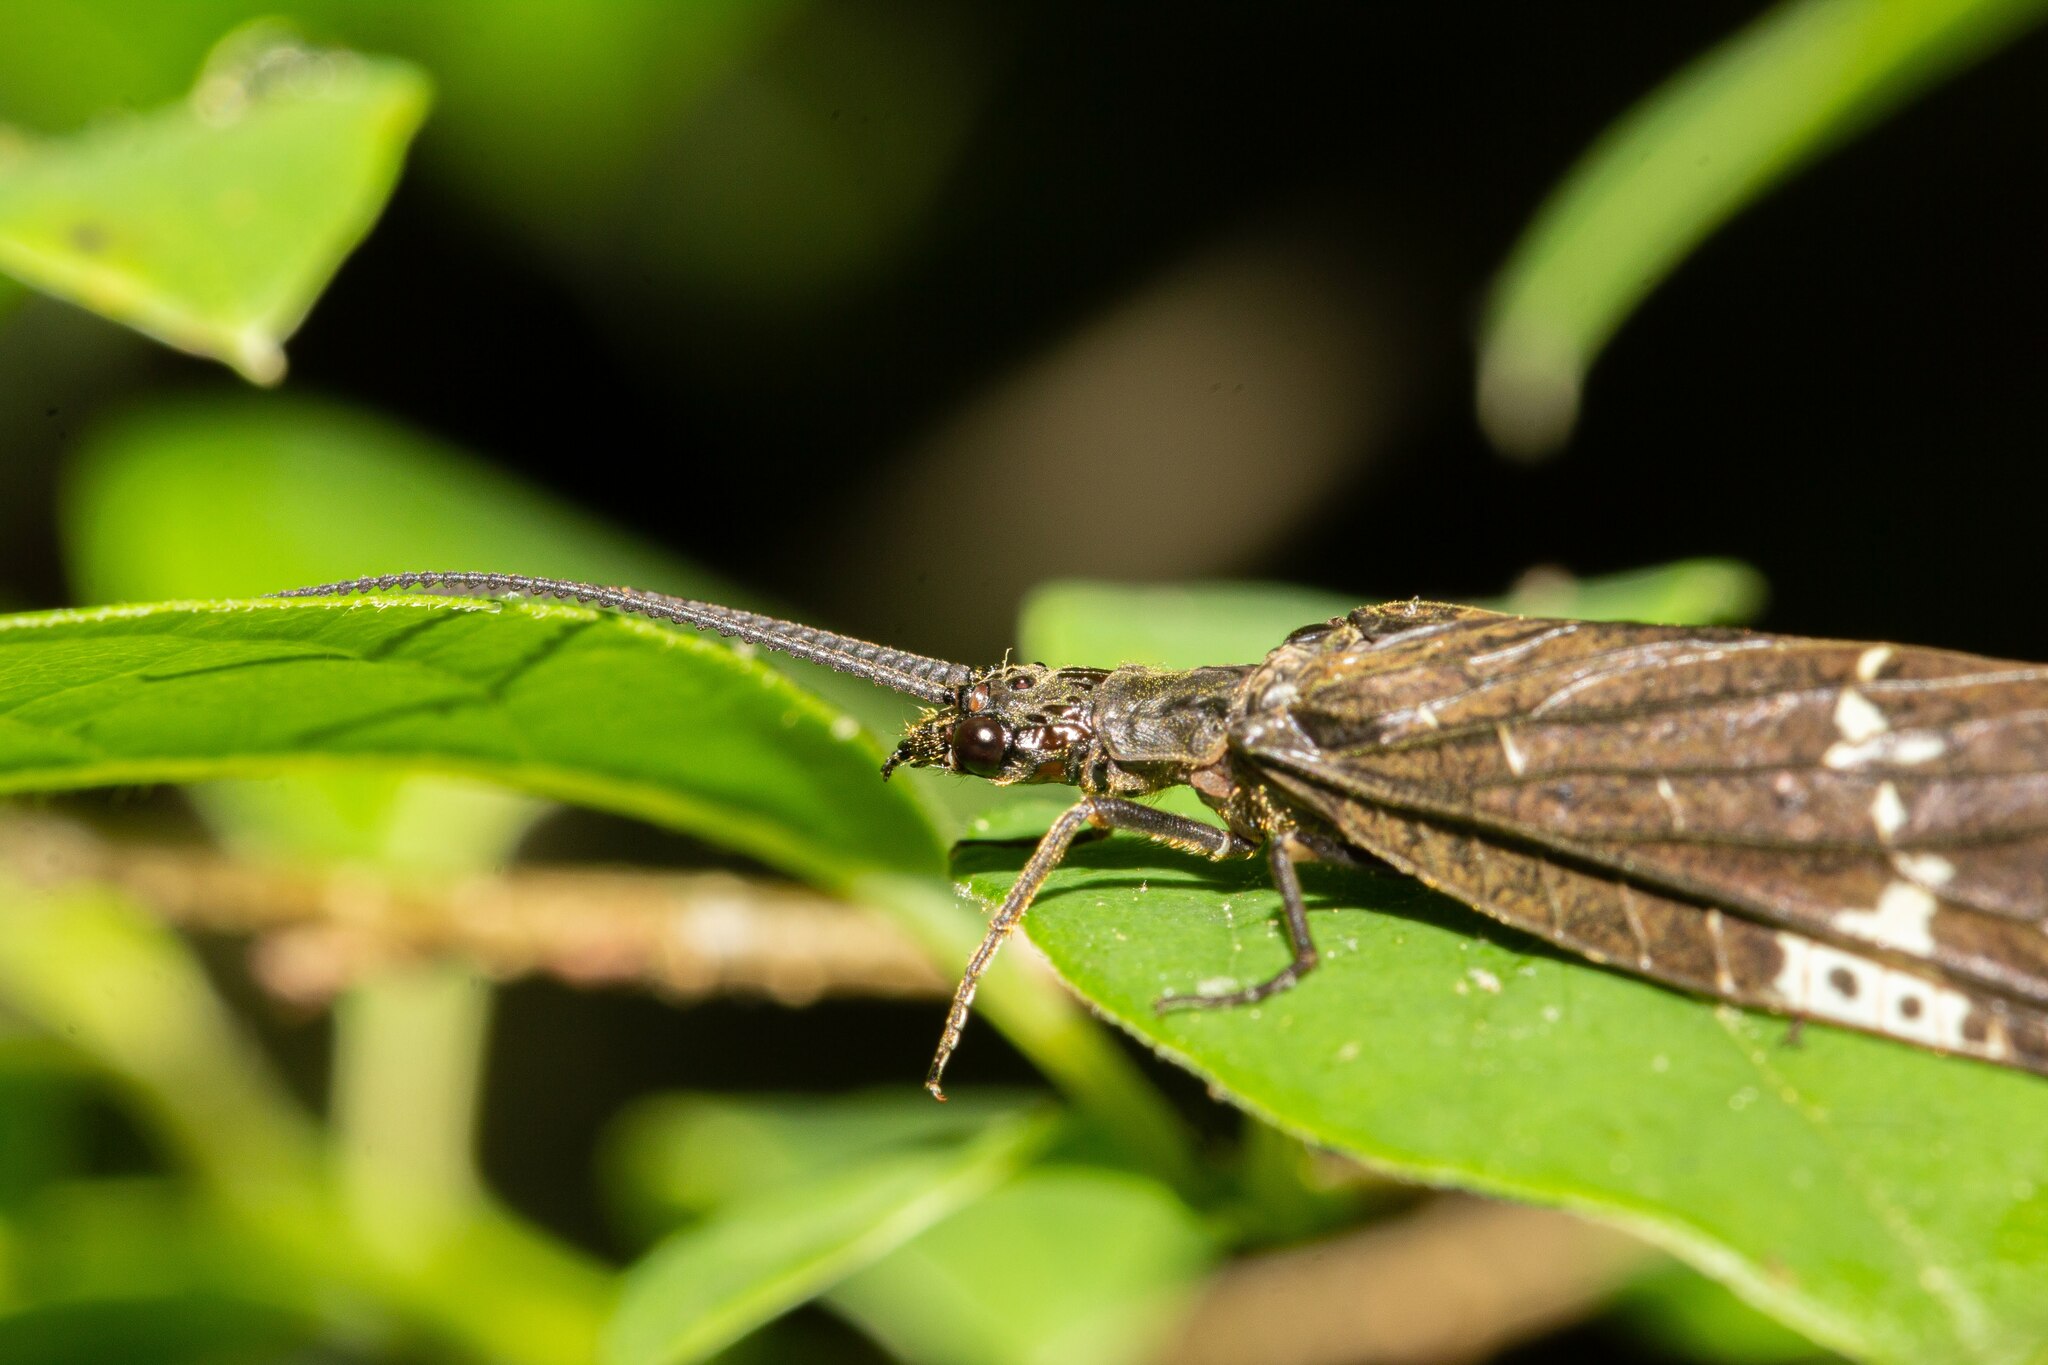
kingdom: Animalia
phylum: Arthropoda
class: Insecta
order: Megaloptera
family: Corydalidae
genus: Nigronia
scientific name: Nigronia serricornis
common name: Serrate dark fishfly
